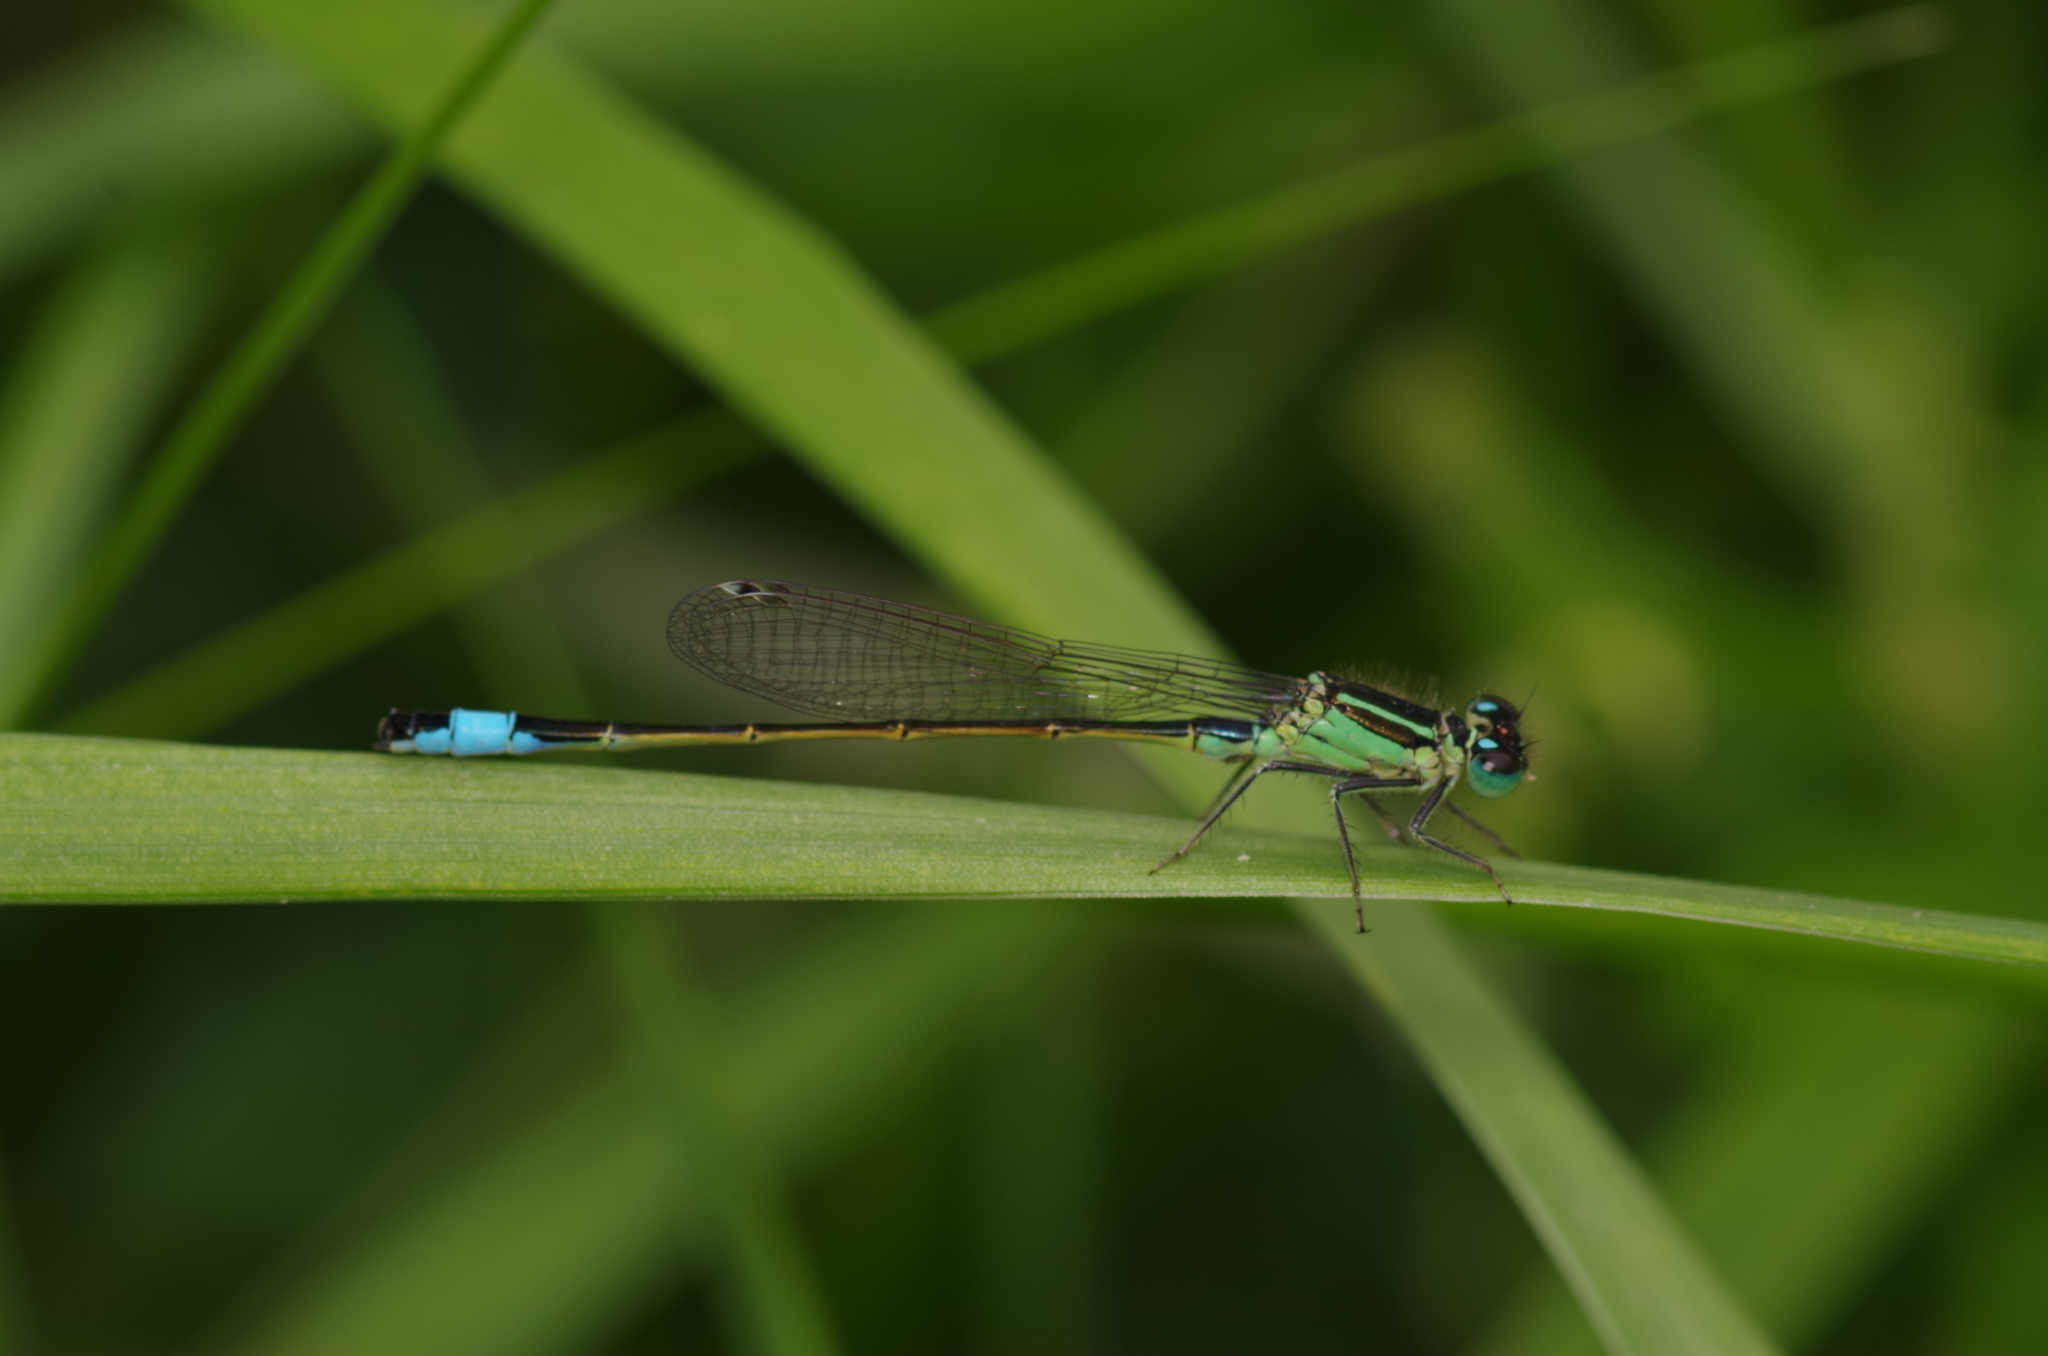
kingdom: Animalia
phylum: Arthropoda
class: Insecta
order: Odonata
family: Coenagrionidae
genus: Ischnura
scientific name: Ischnura elegans
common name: Blue-tailed damselfly
